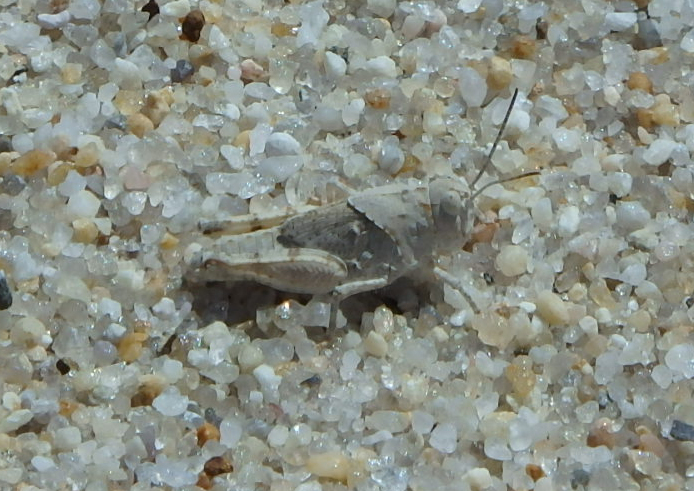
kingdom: Animalia
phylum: Arthropoda
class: Insecta
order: Orthoptera
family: Acrididae
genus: Trimerotropis
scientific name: Trimerotropis maritima
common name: Seaside locust
